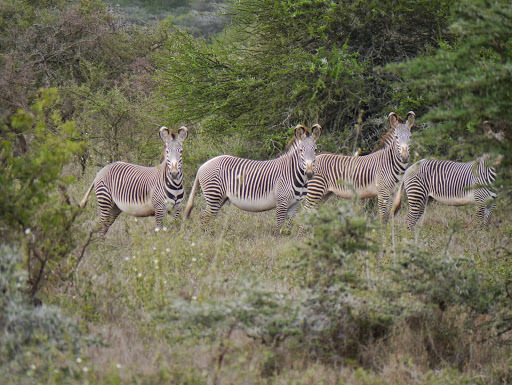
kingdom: Animalia
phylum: Chordata
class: Mammalia
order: Perissodactyla
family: Equidae
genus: Equus
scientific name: Equus grevyi
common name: Grevy's zebra
